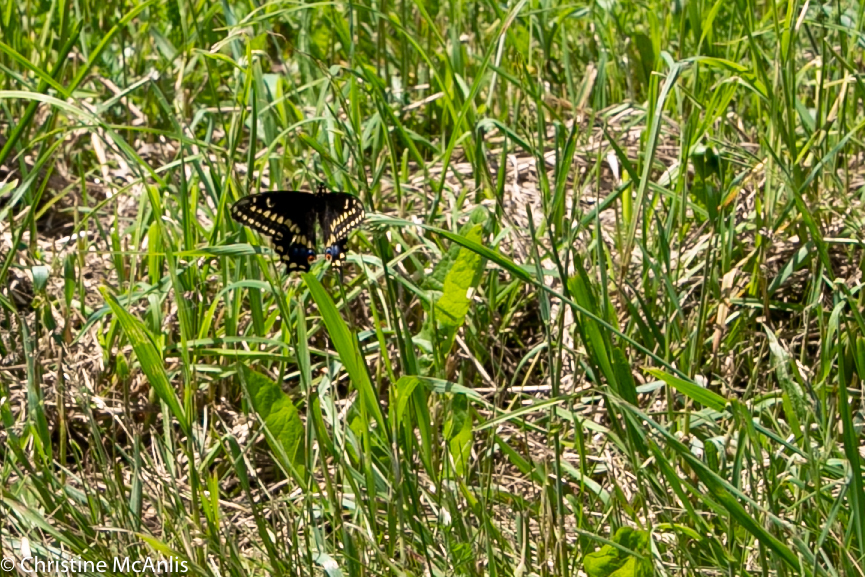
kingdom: Animalia
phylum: Arthropoda
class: Insecta
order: Lepidoptera
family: Papilionidae
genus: Papilio
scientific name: Papilio polyxenes
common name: Black swallowtail
